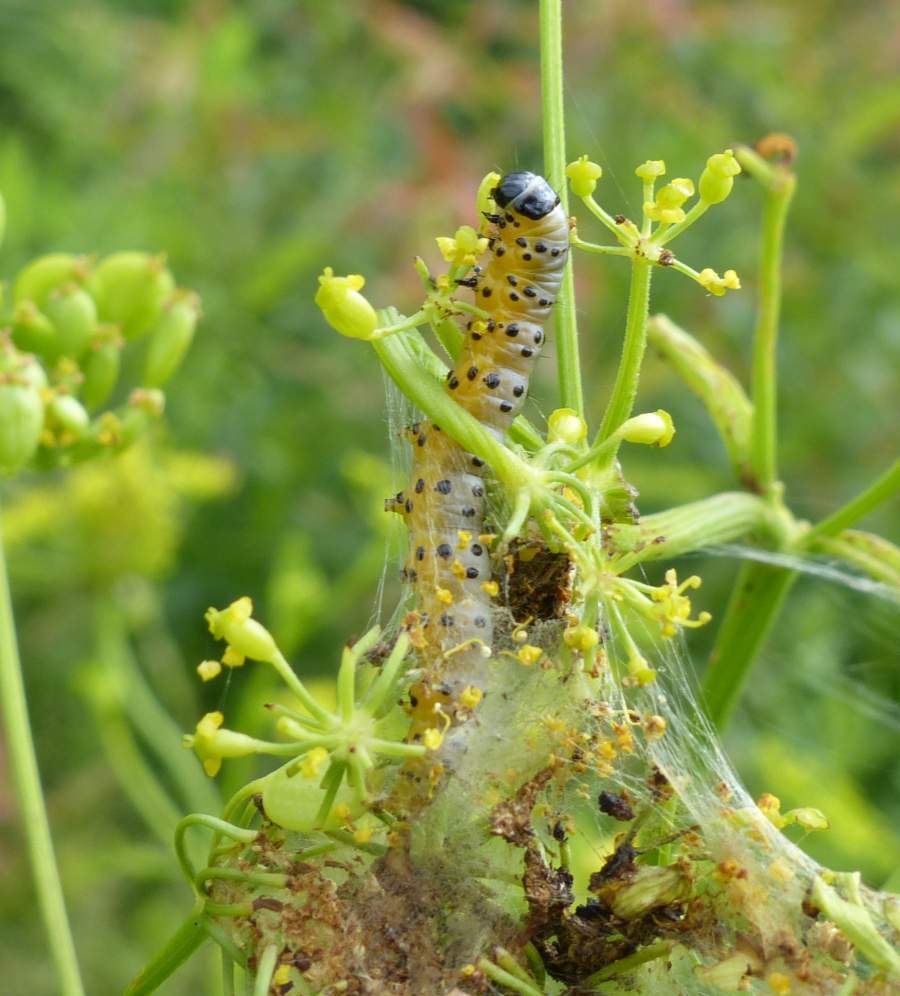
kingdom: Animalia
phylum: Arthropoda
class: Insecta
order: Lepidoptera
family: Depressariidae
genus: Depressaria
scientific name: Depressaria radiella
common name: Parsnip moth
